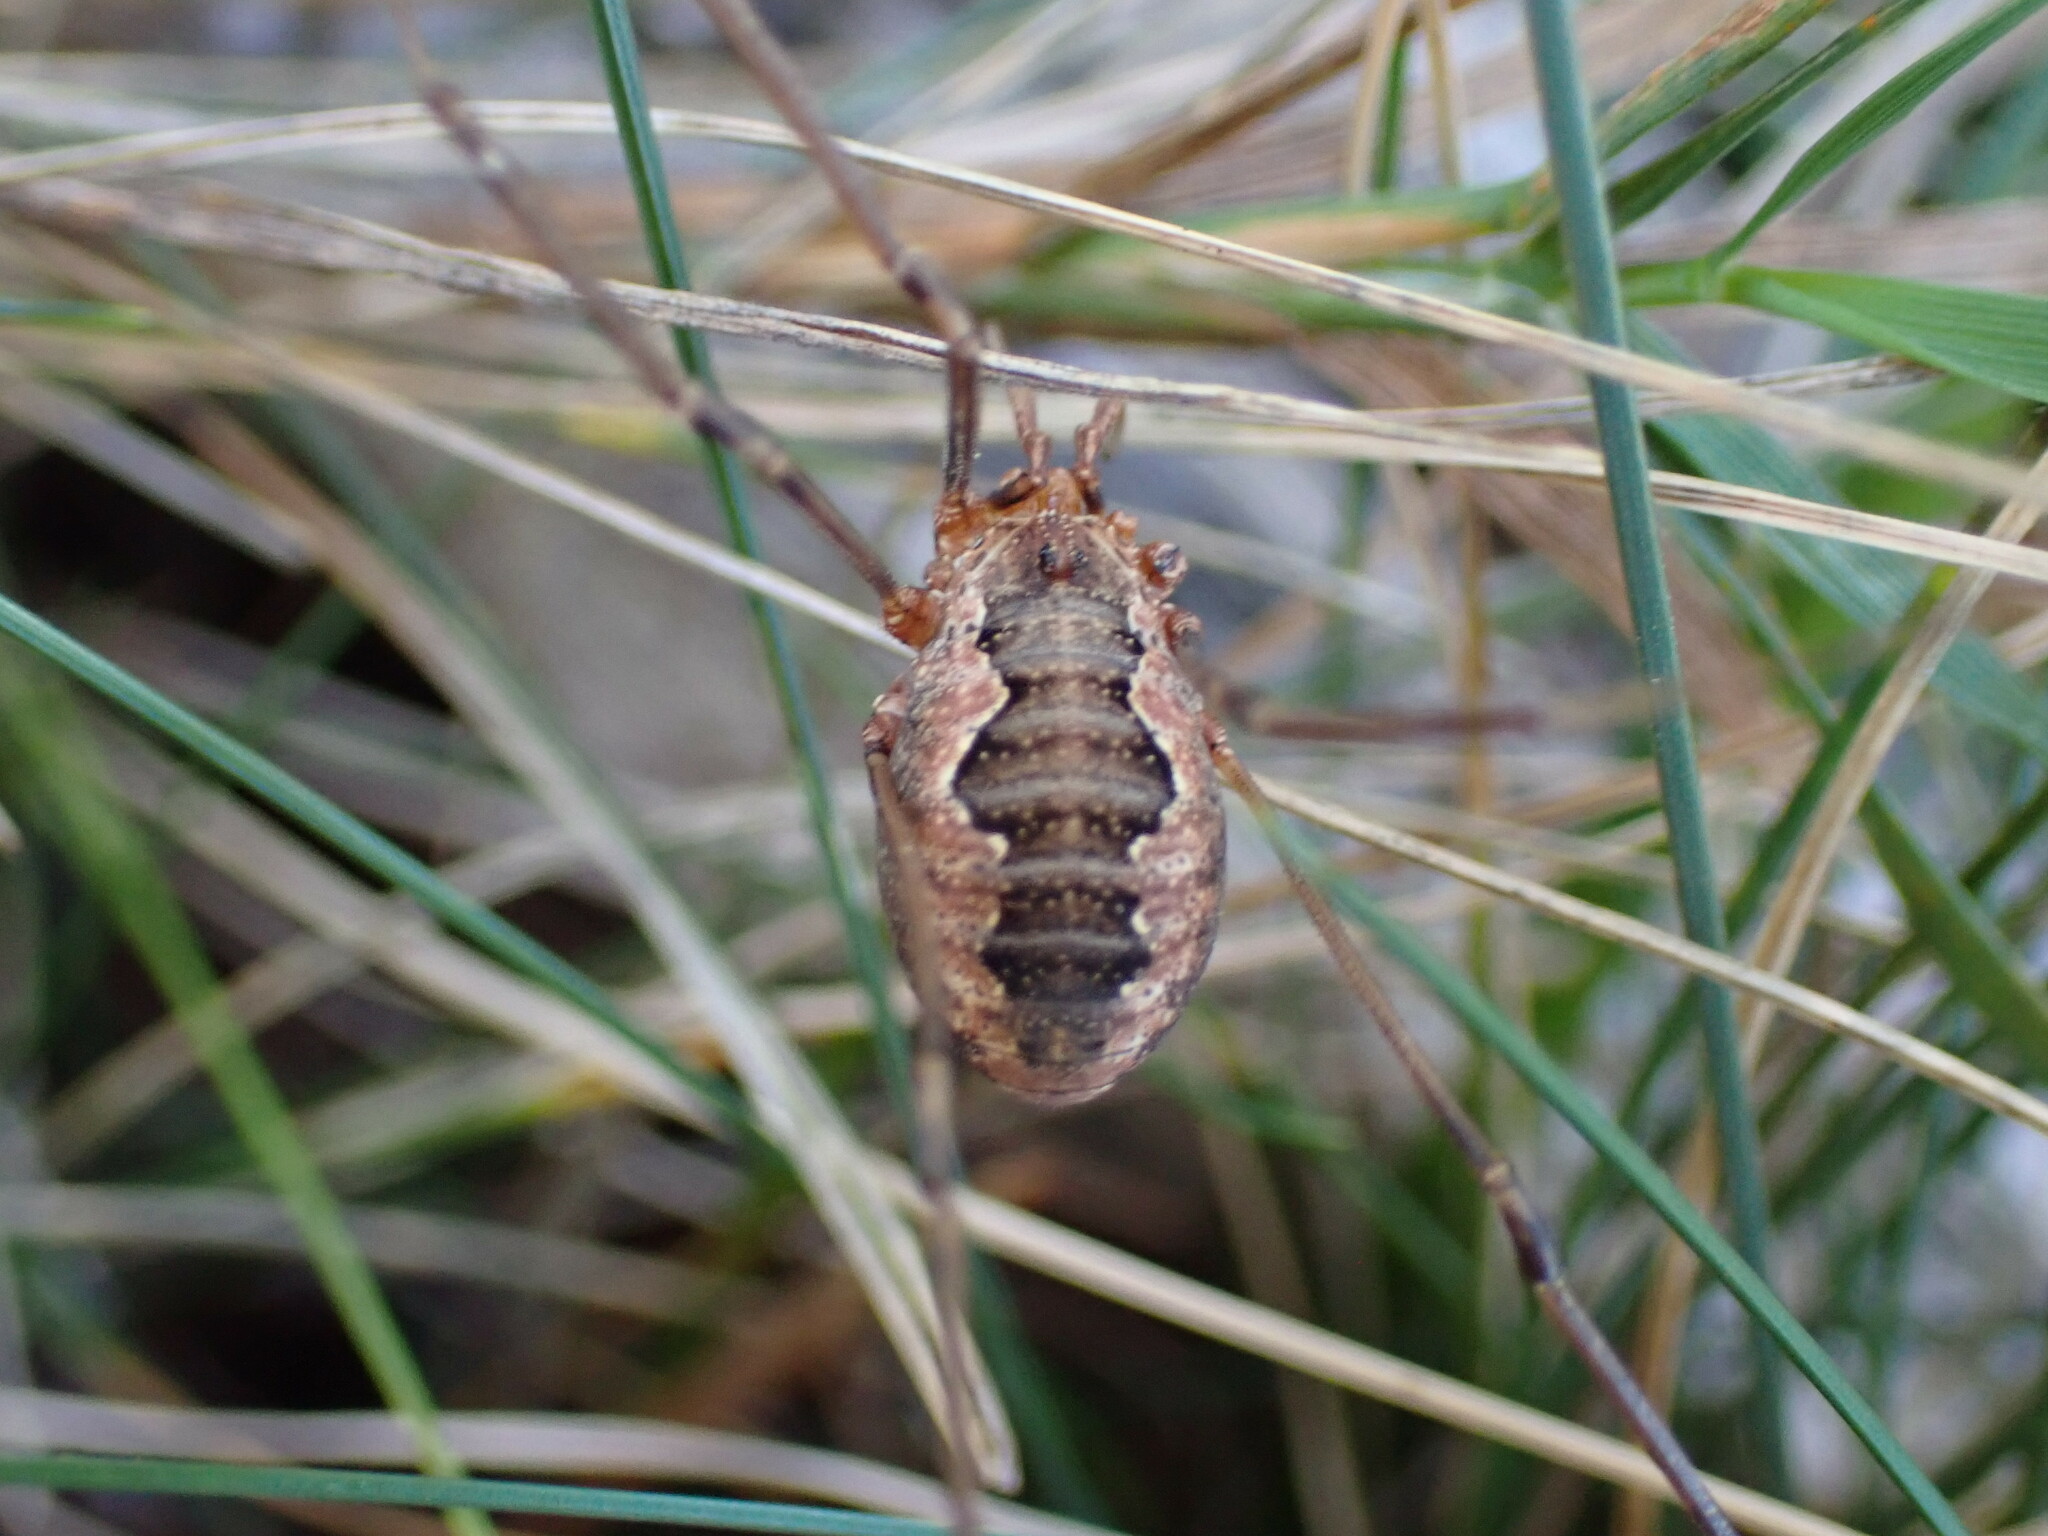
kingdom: Animalia
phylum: Arthropoda
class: Arachnida
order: Opiliones
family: Phalangiidae
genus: Phalangium
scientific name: Phalangium opilio
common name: Daddy longleg
